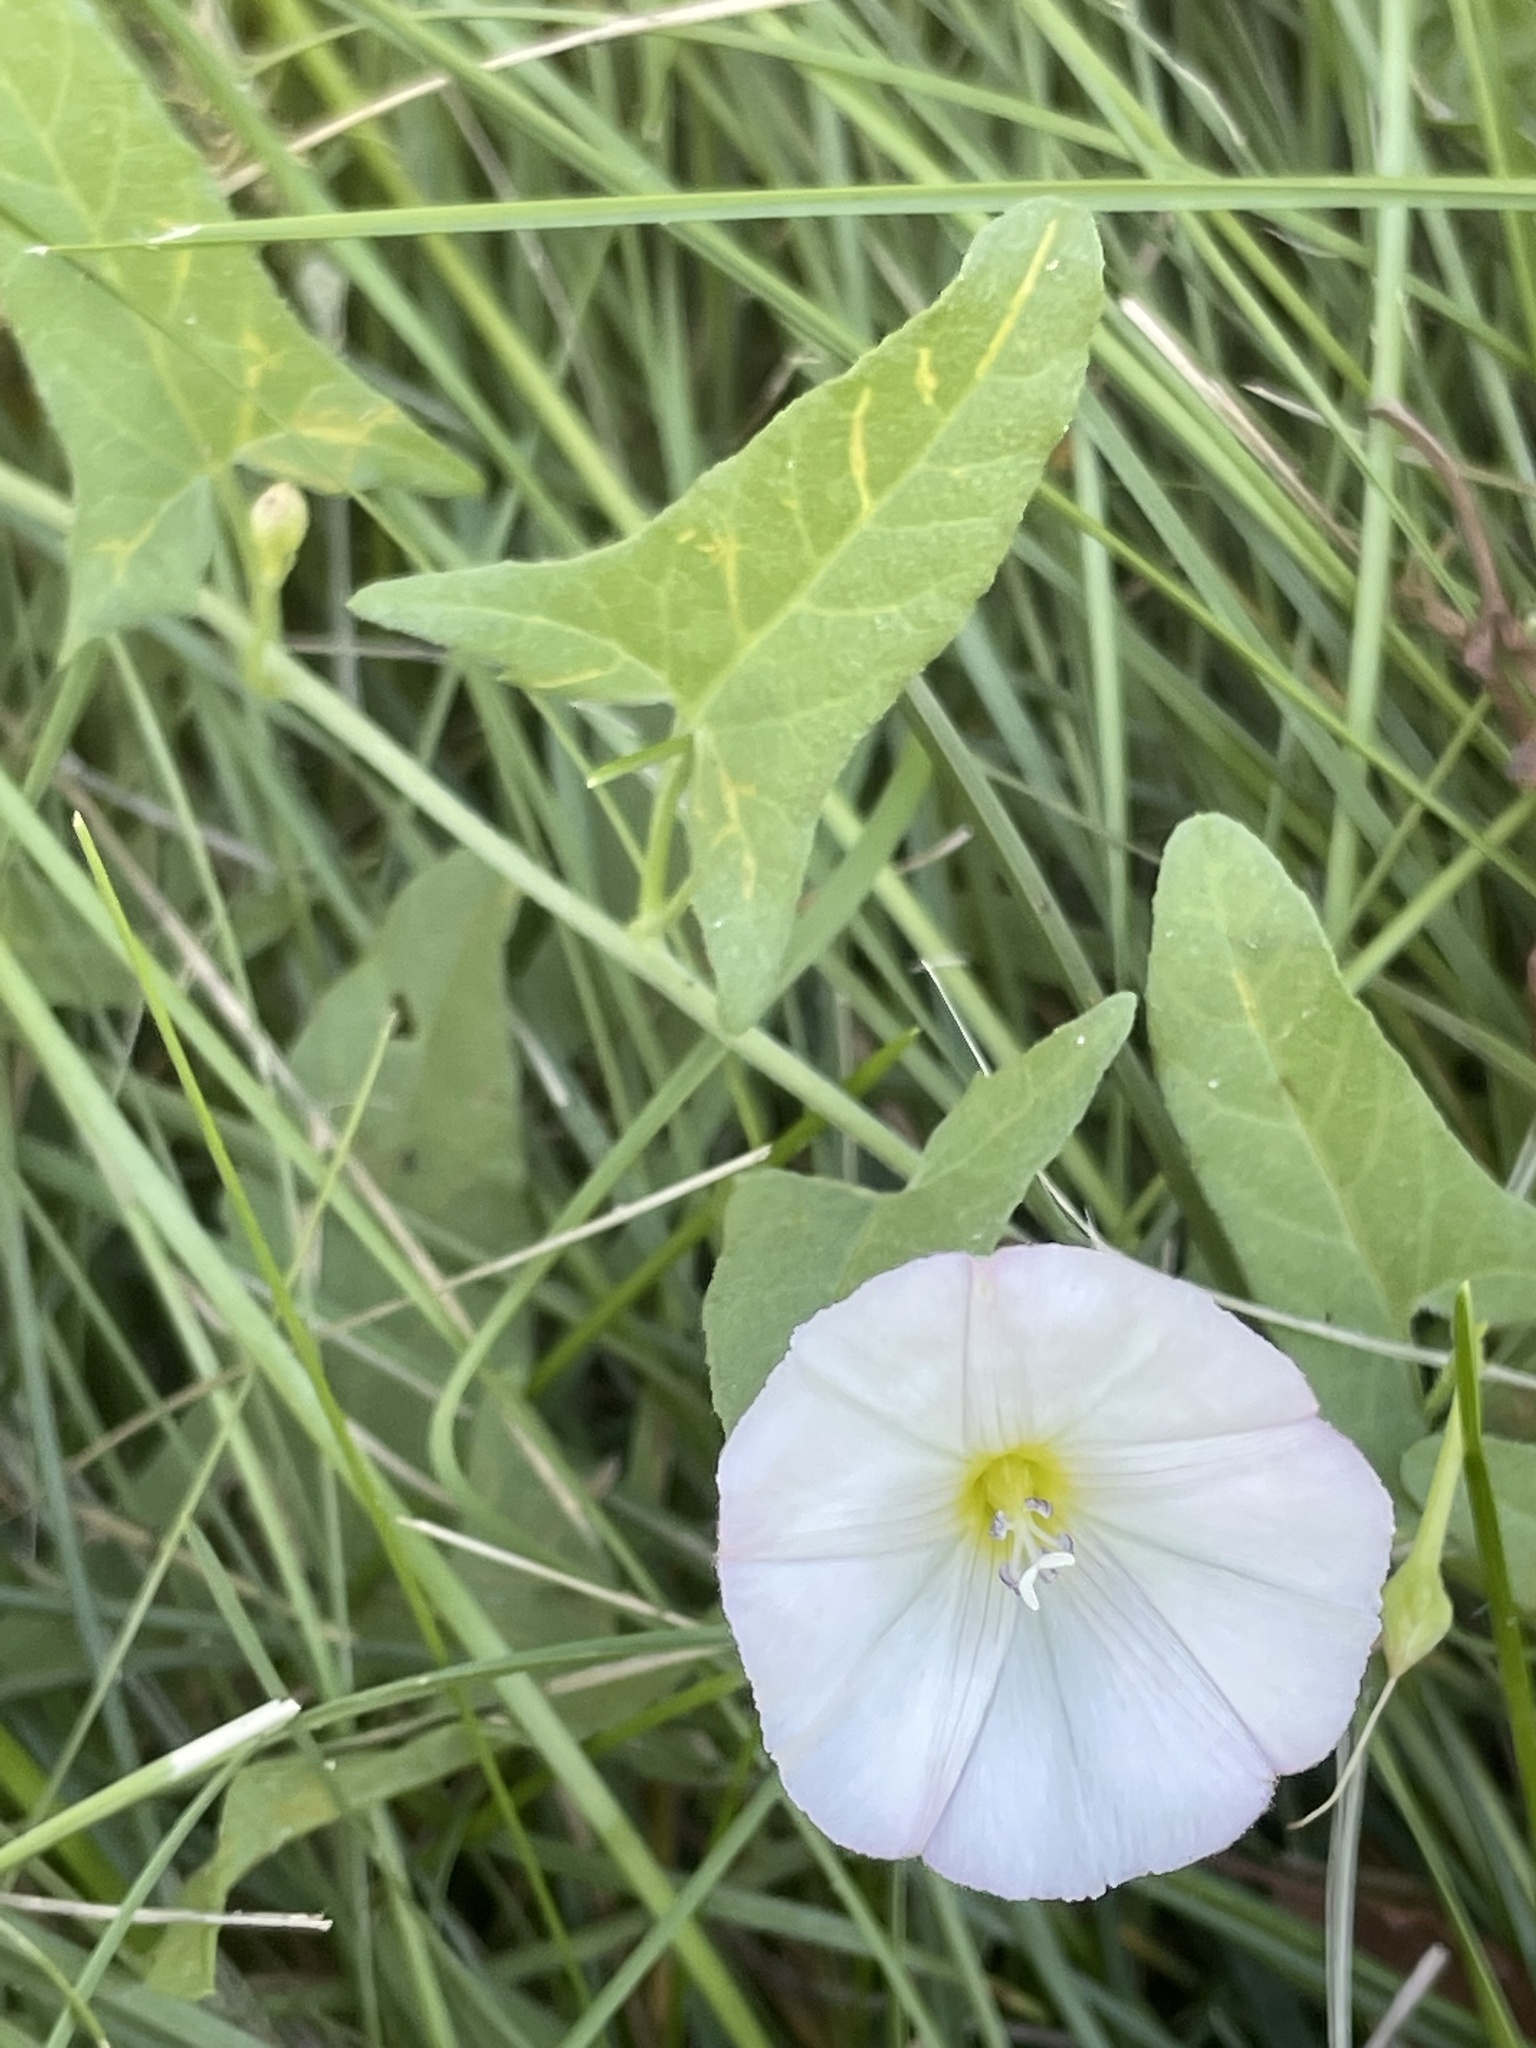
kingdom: Plantae
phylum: Tracheophyta
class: Magnoliopsida
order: Solanales
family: Convolvulaceae
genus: Convolvulus
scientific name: Convolvulus arvensis
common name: Field bindweed
